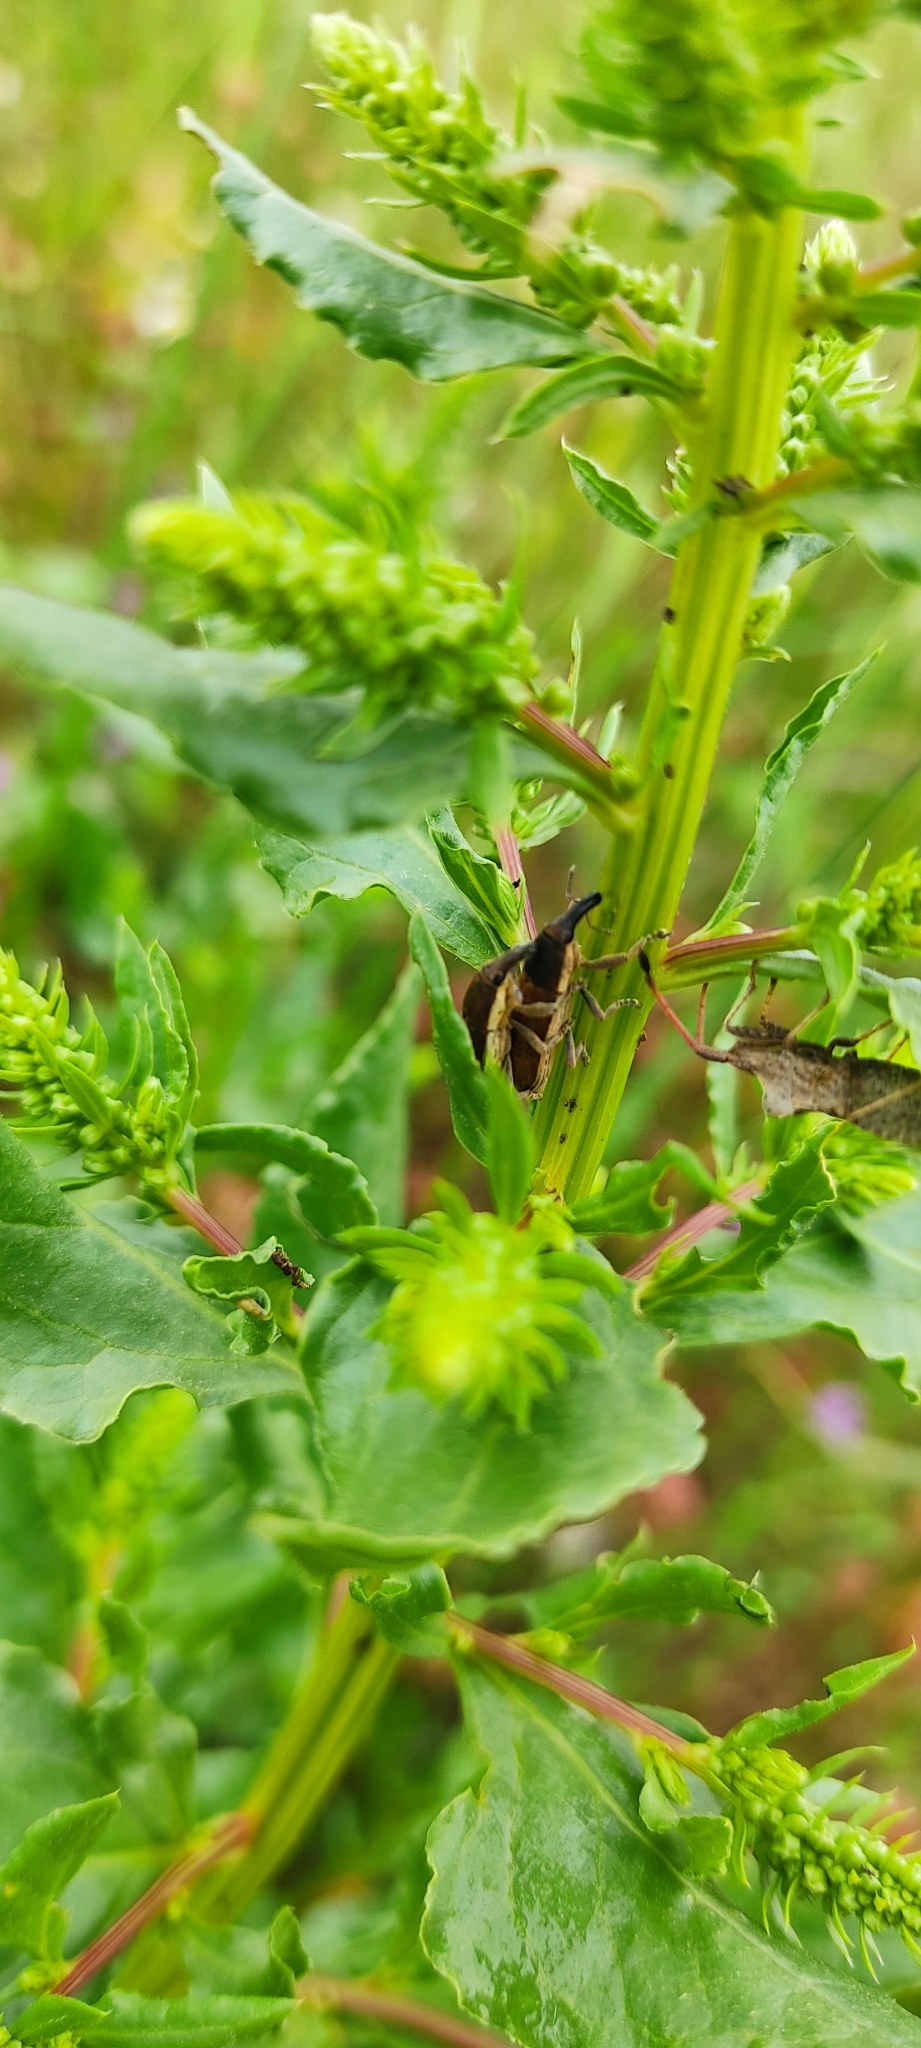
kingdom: Animalia
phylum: Arthropoda
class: Insecta
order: Coleoptera
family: Curculionidae
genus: Lixus
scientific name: Lixus juncii
